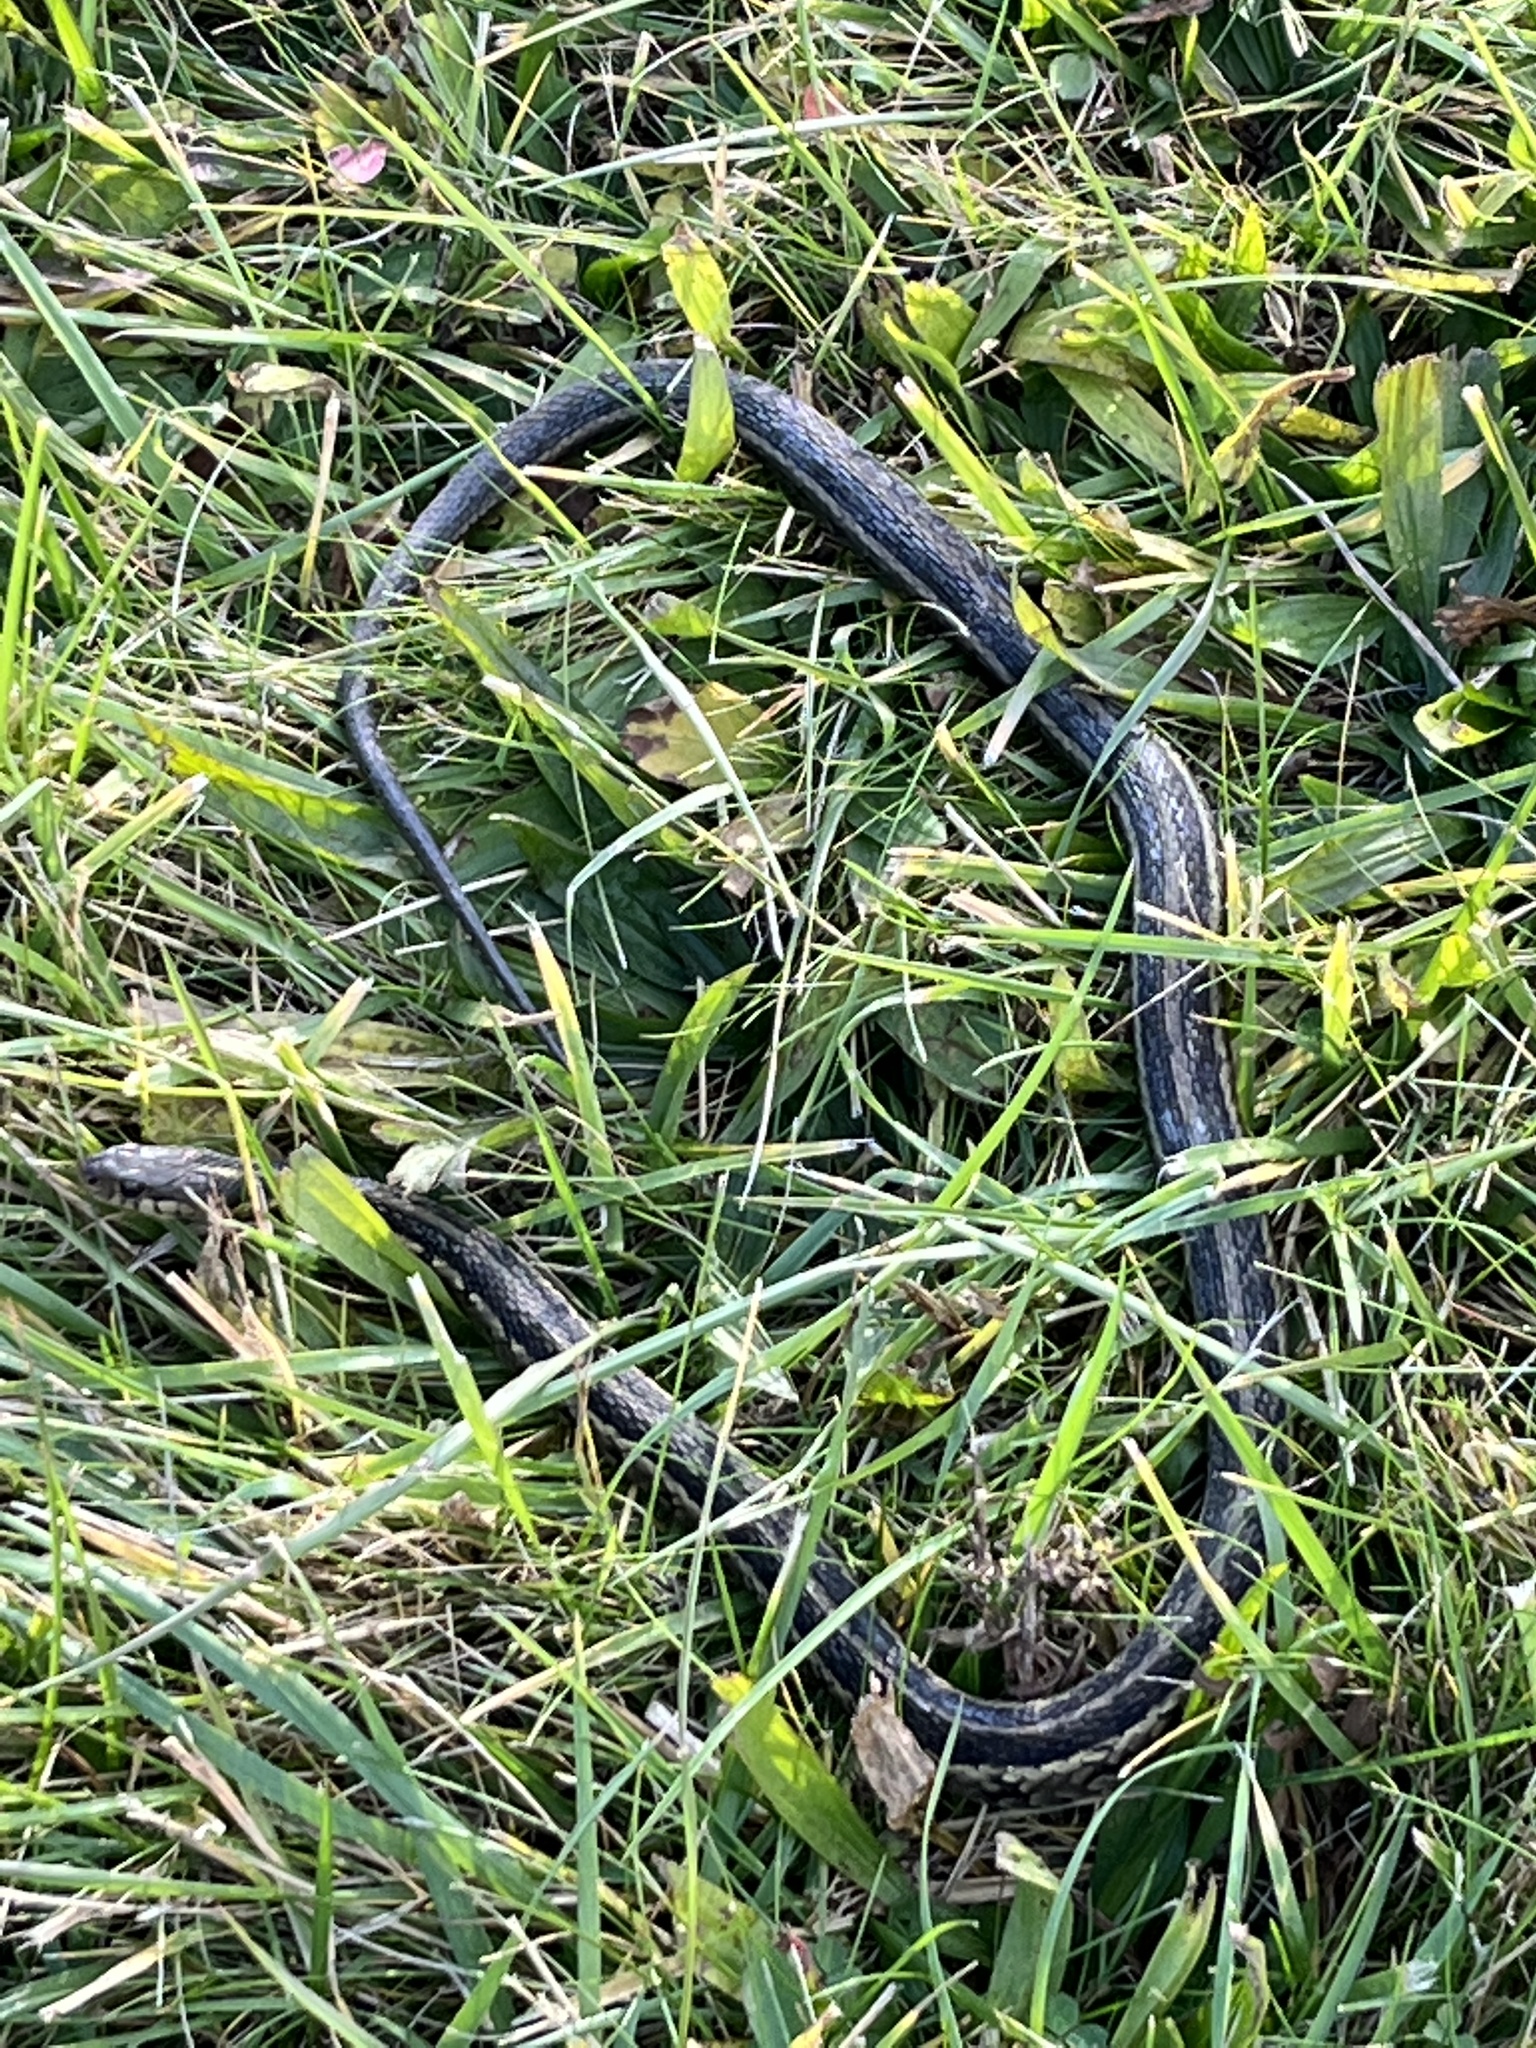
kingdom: Animalia
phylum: Chordata
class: Squamata
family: Colubridae
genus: Thamnophis
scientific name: Thamnophis sirtalis
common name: Common garter snake
